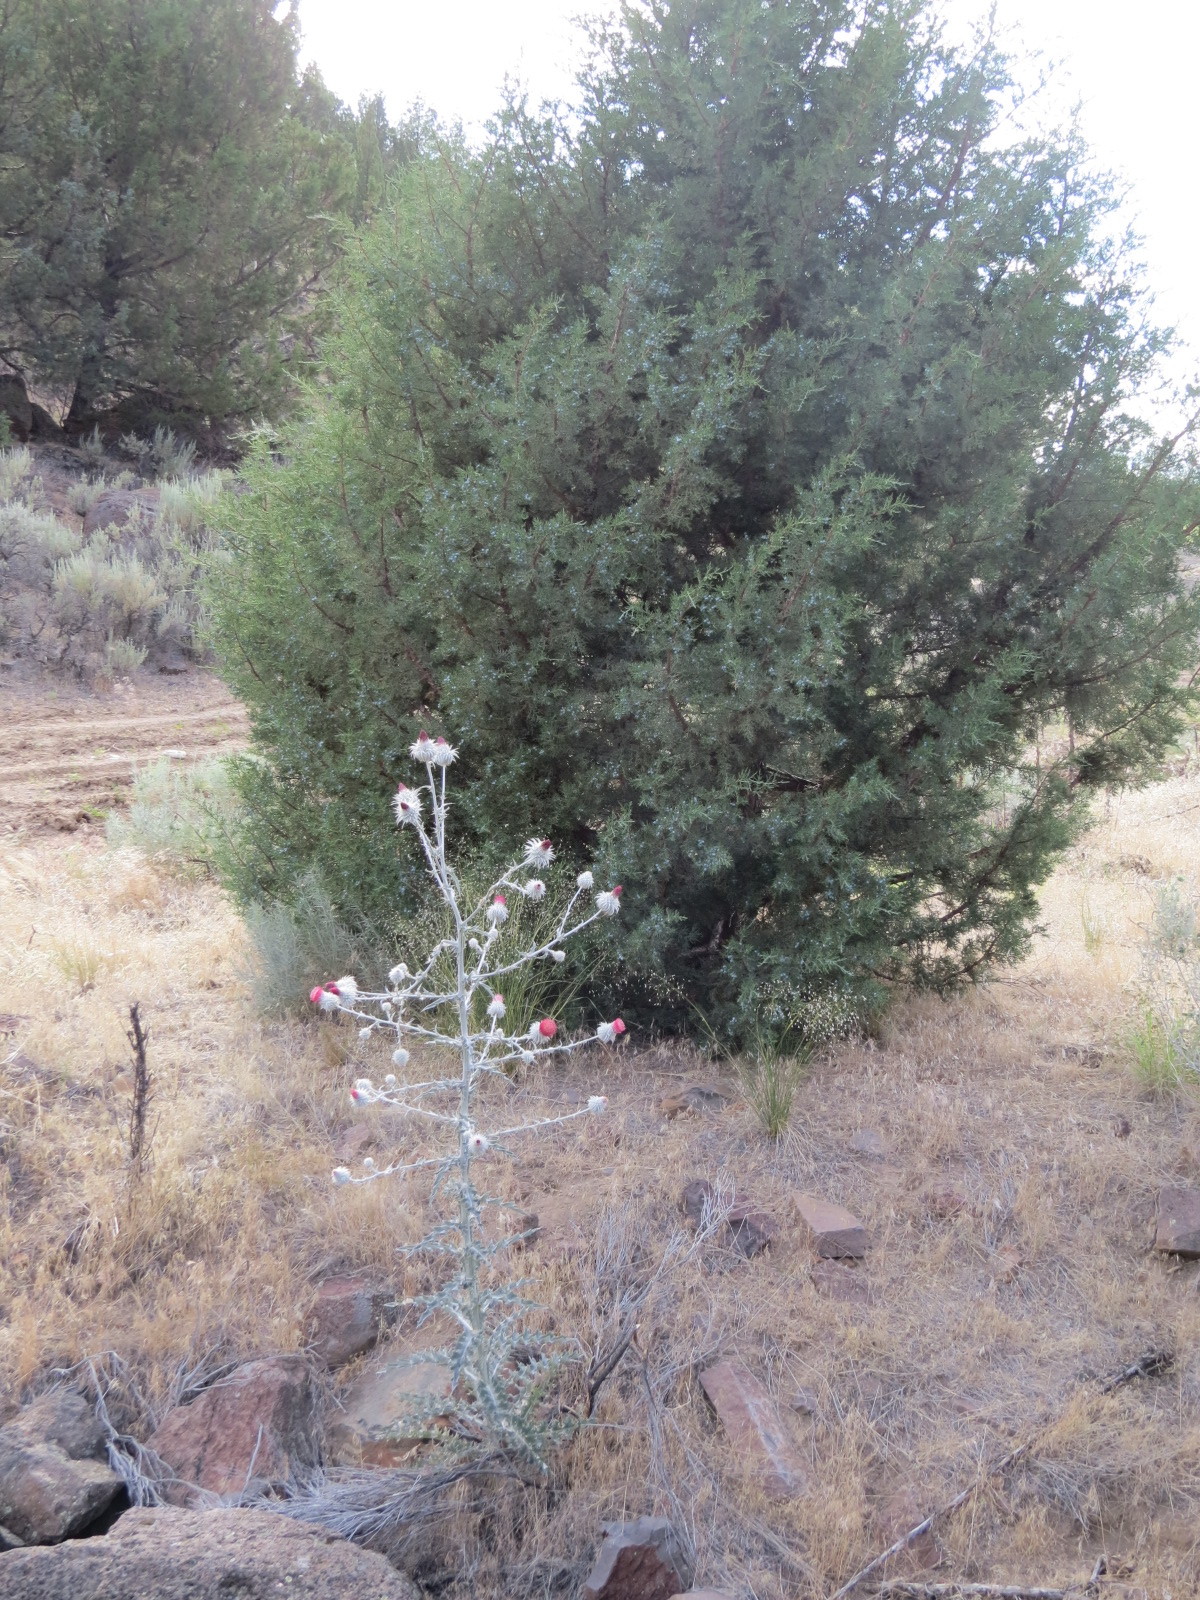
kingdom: Plantae
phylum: Tracheophyta
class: Magnoliopsida
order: Asterales
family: Asteraceae
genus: Cirsium
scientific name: Cirsium occidentale
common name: Western thistle
